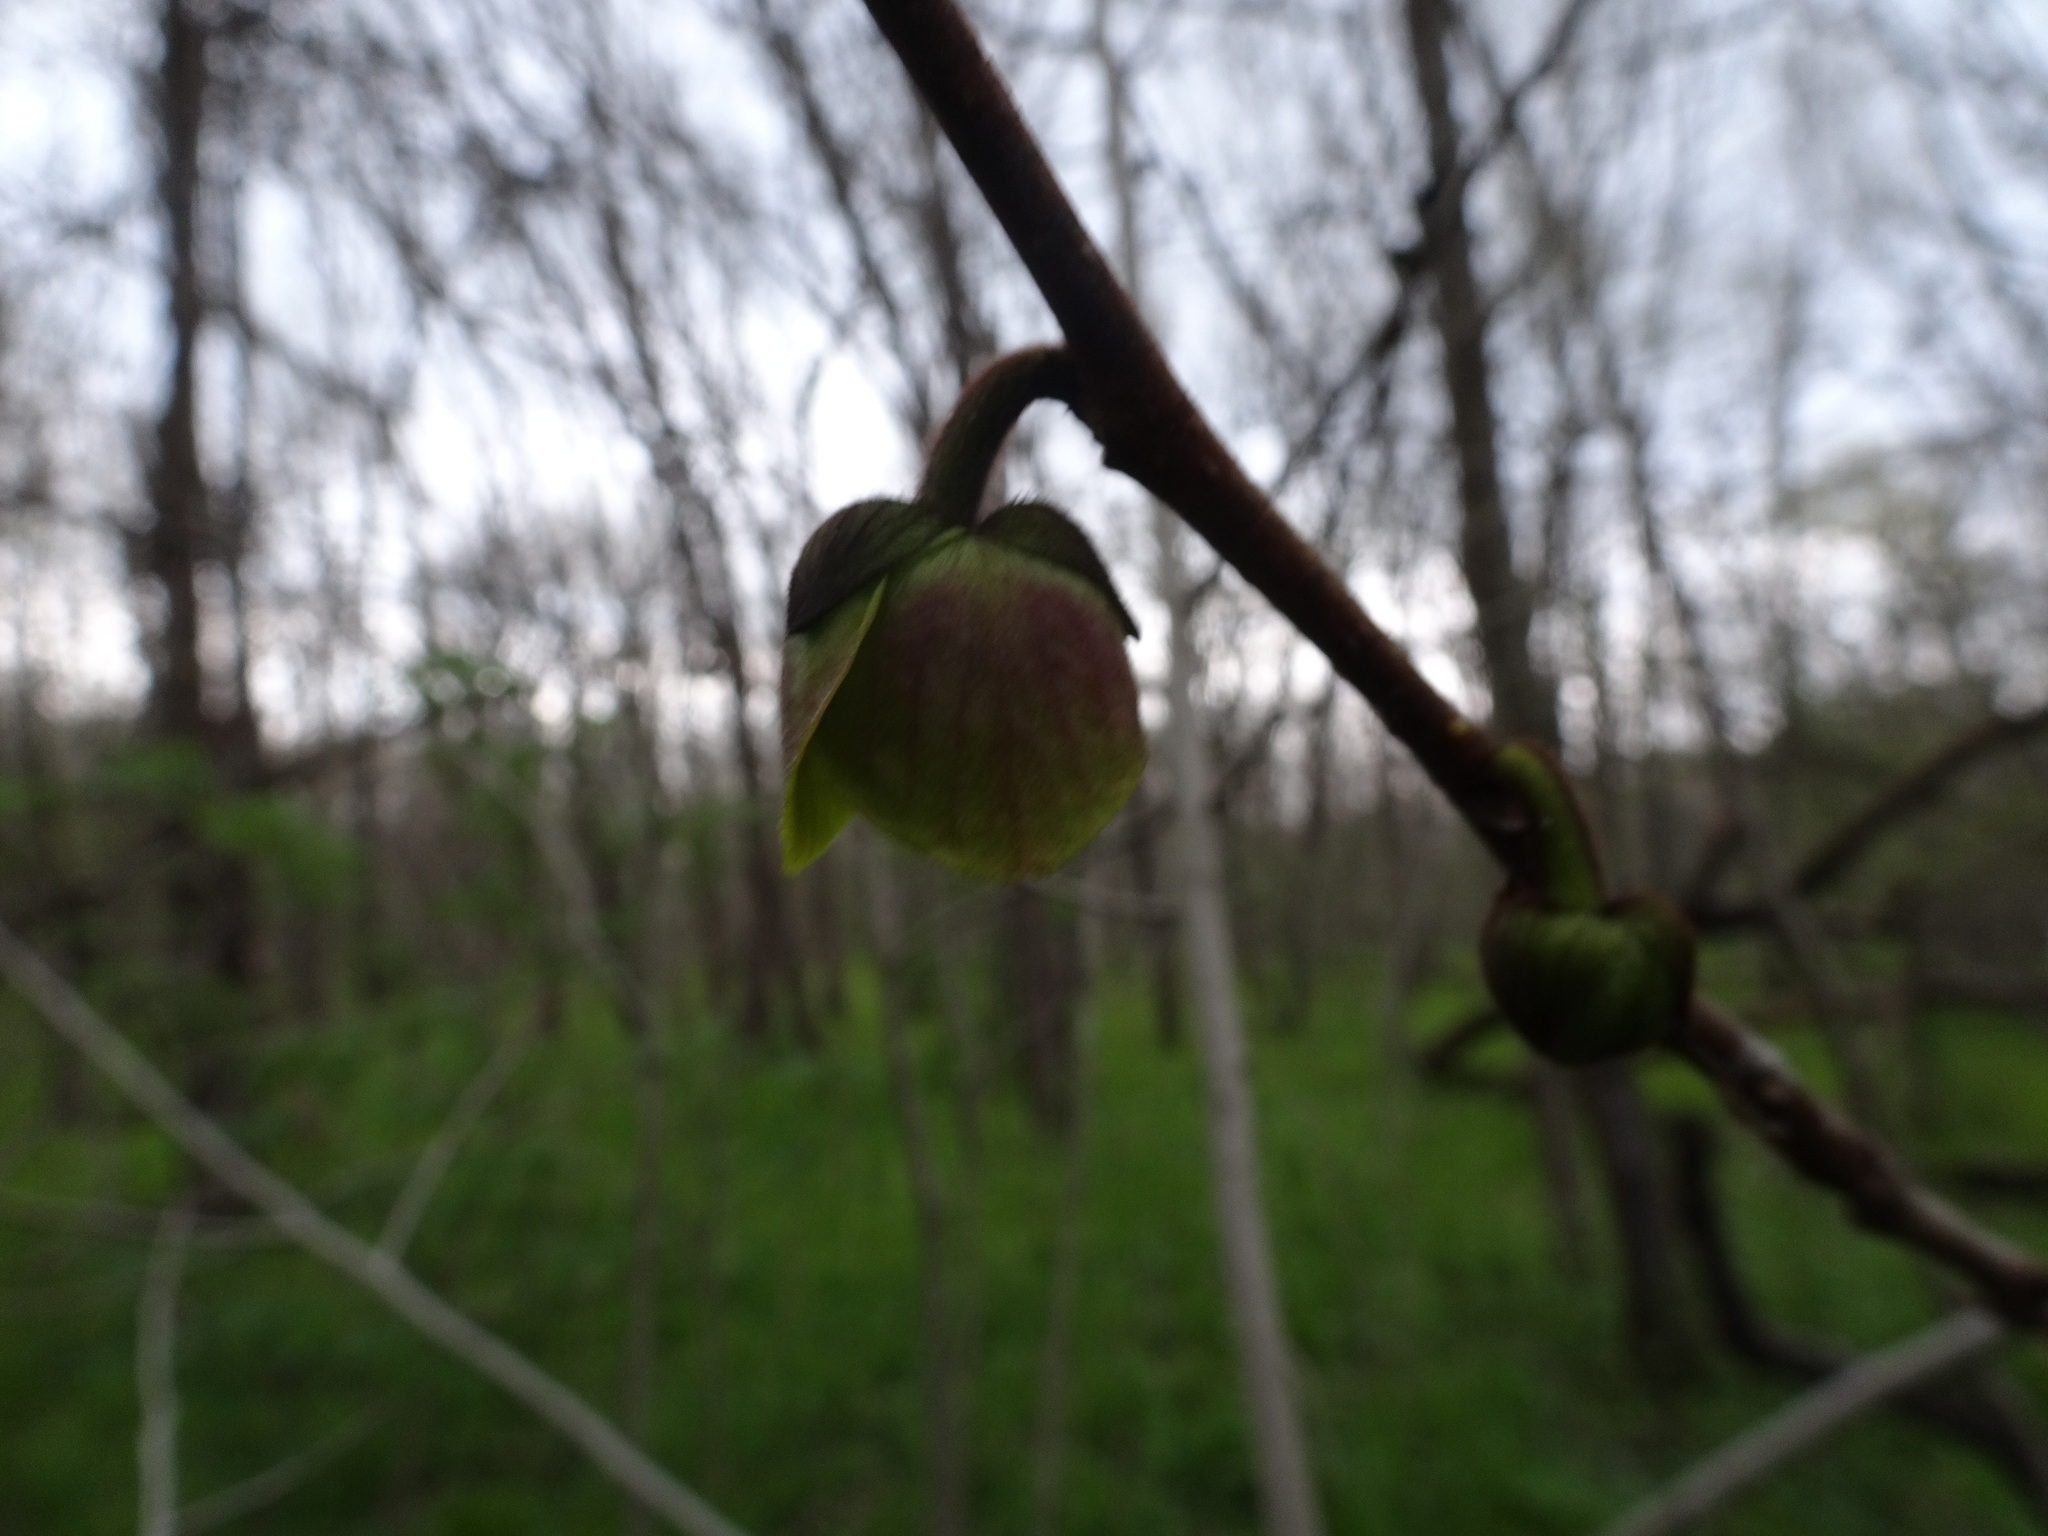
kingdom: Plantae
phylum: Tracheophyta
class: Magnoliopsida
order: Magnoliales
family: Annonaceae
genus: Asimina
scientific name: Asimina triloba
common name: Dog-banana
